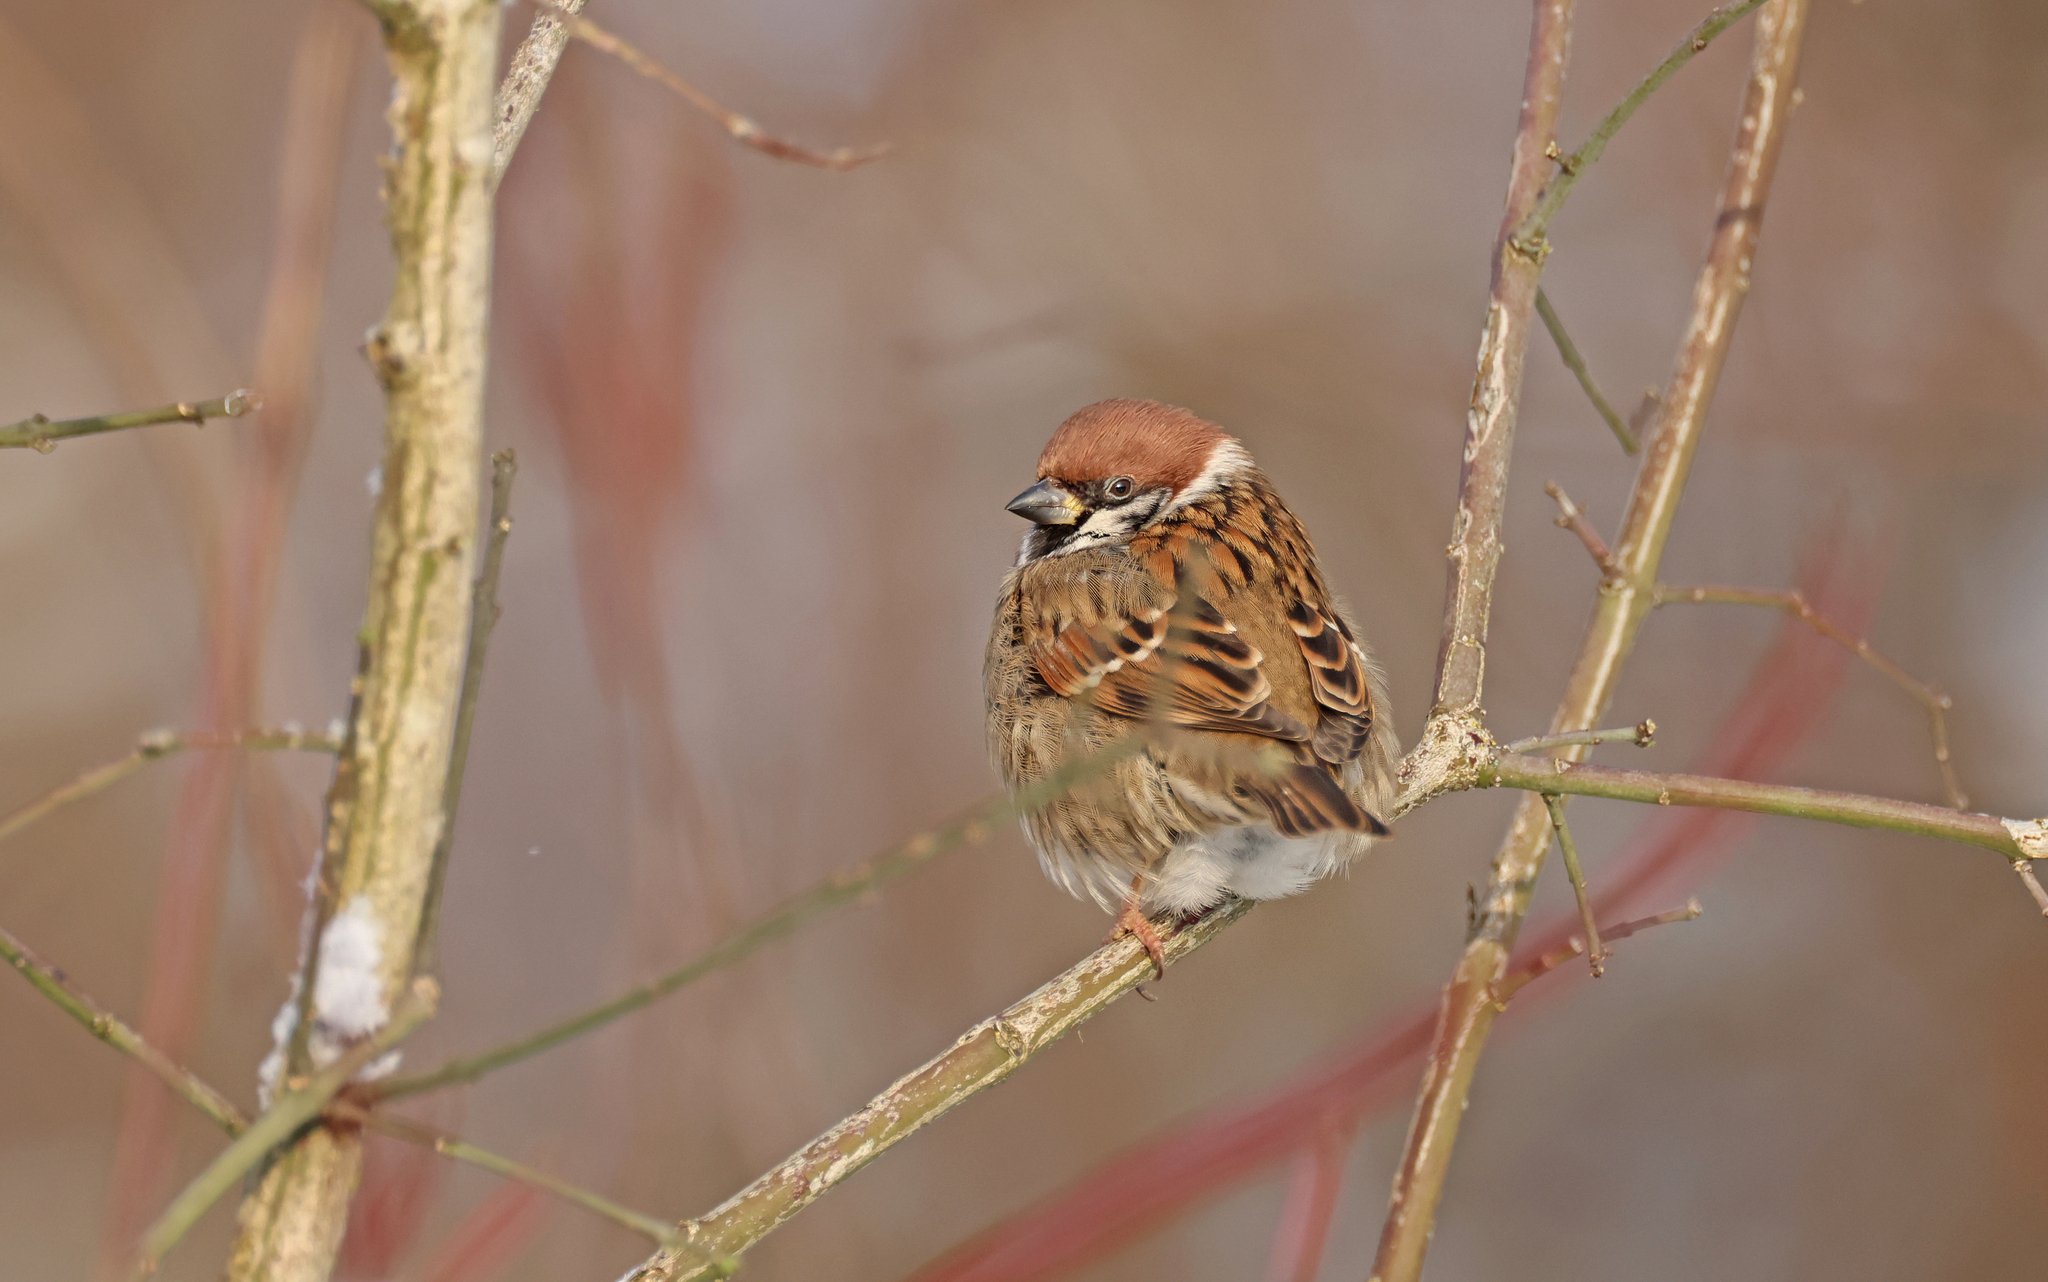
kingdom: Animalia
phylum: Chordata
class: Aves
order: Passeriformes
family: Passeridae
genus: Passer
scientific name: Passer montanus
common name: Eurasian tree sparrow
